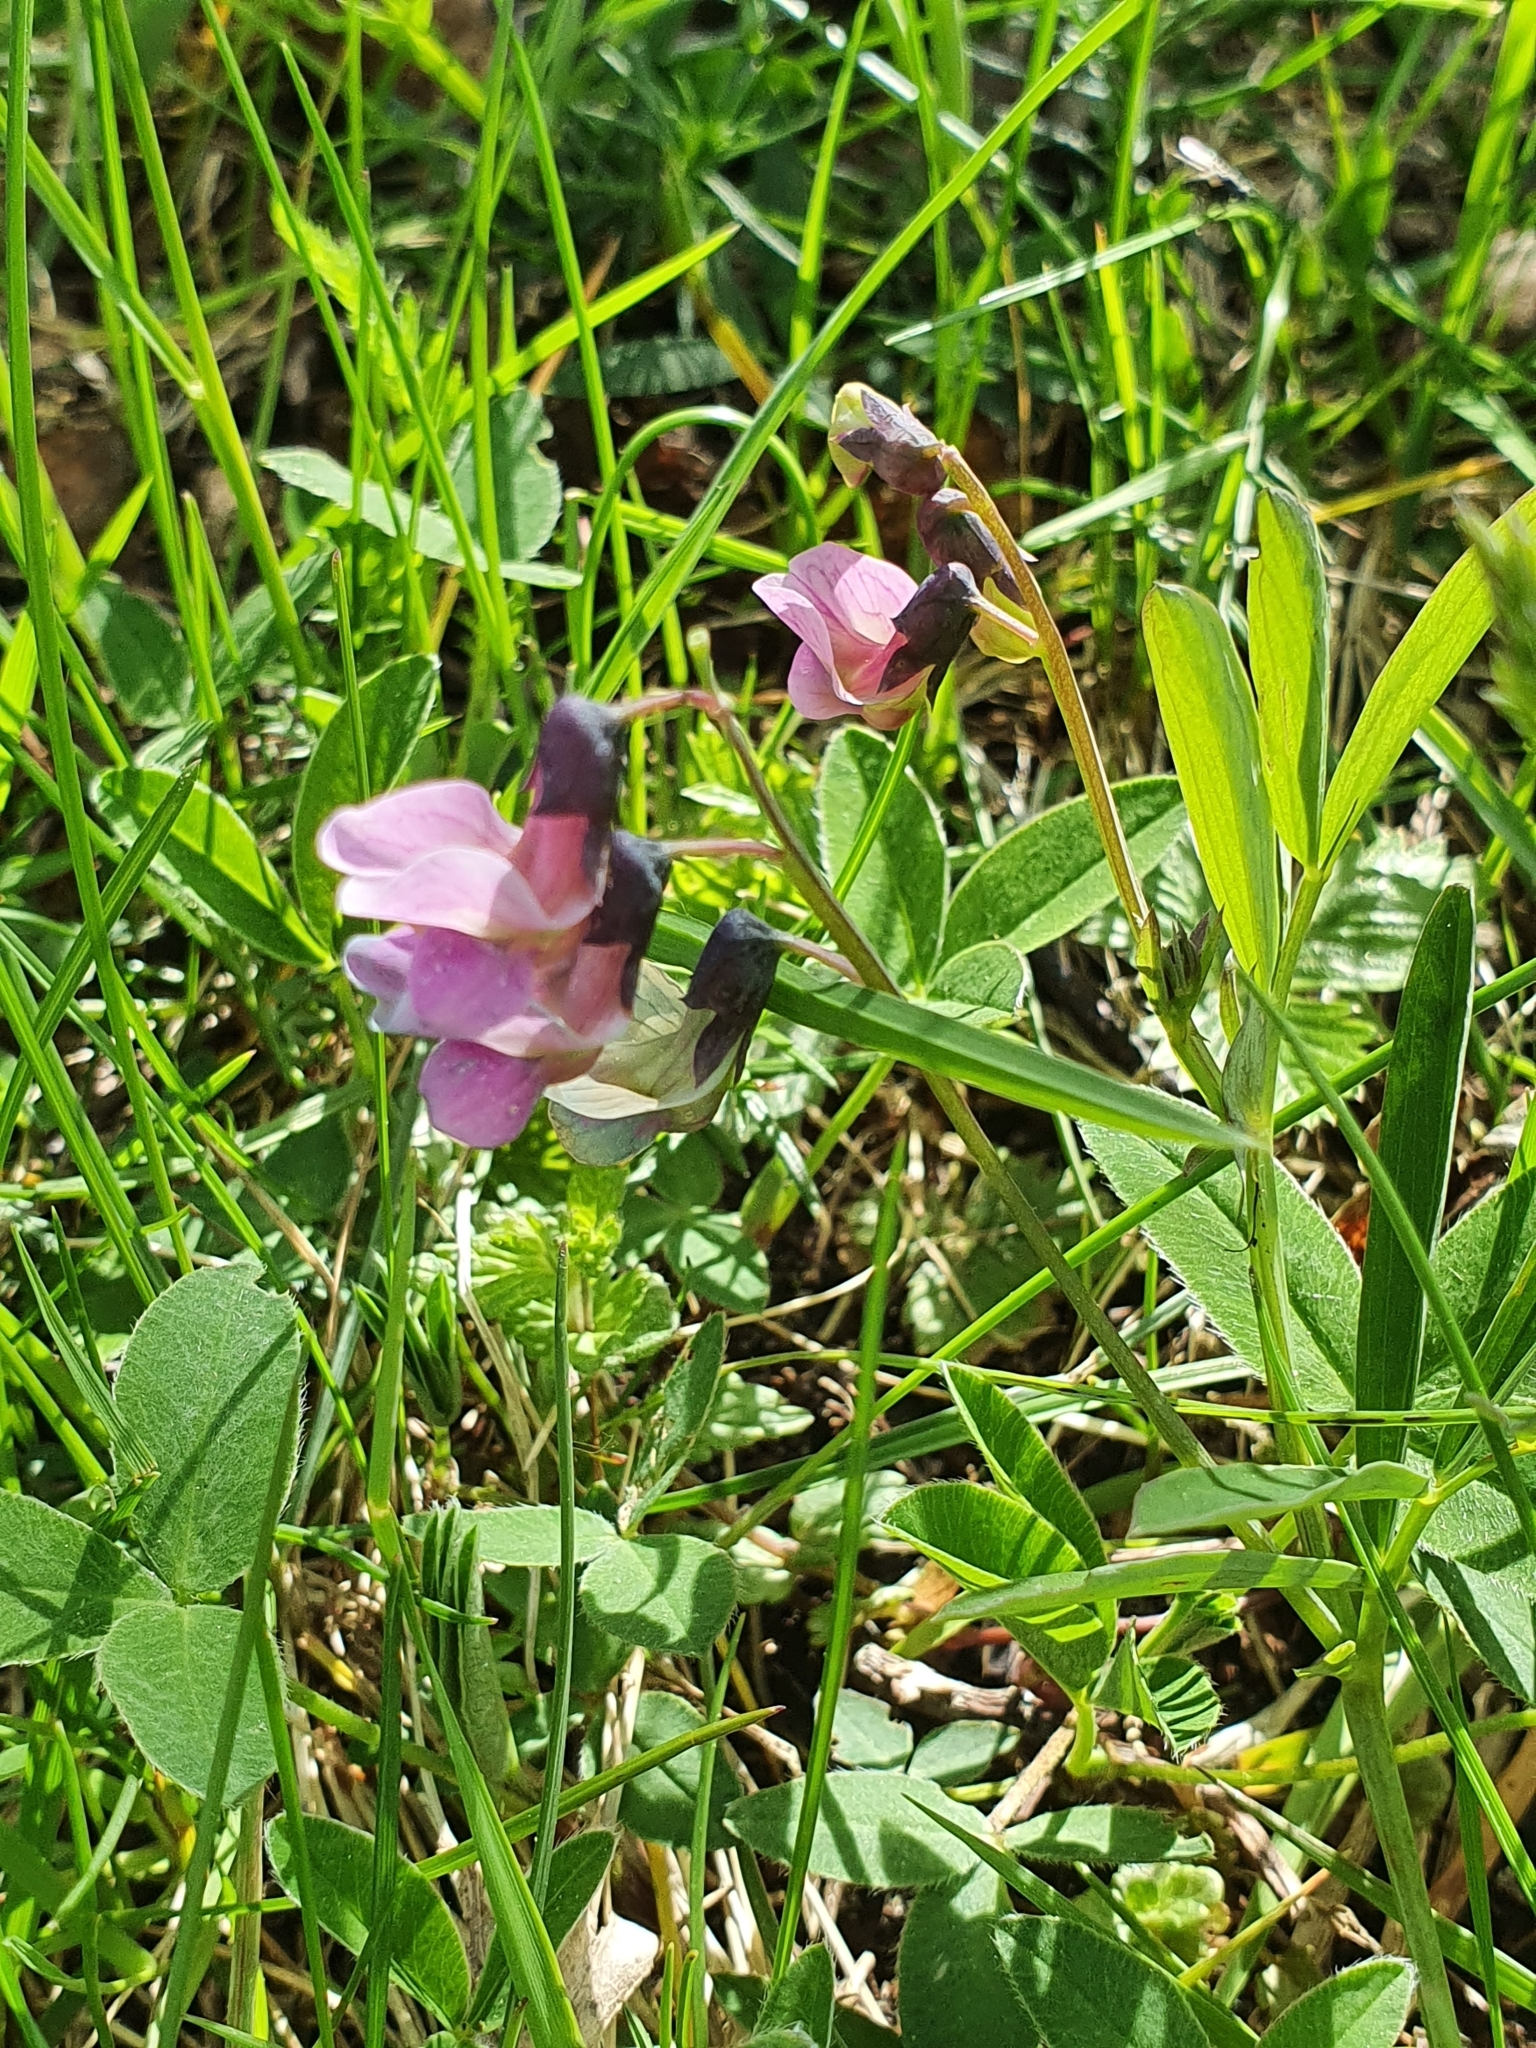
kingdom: Plantae
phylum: Tracheophyta
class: Magnoliopsida
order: Fabales
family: Fabaceae
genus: Lathyrus
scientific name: Lathyrus linifolius
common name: Bitter-vetch
